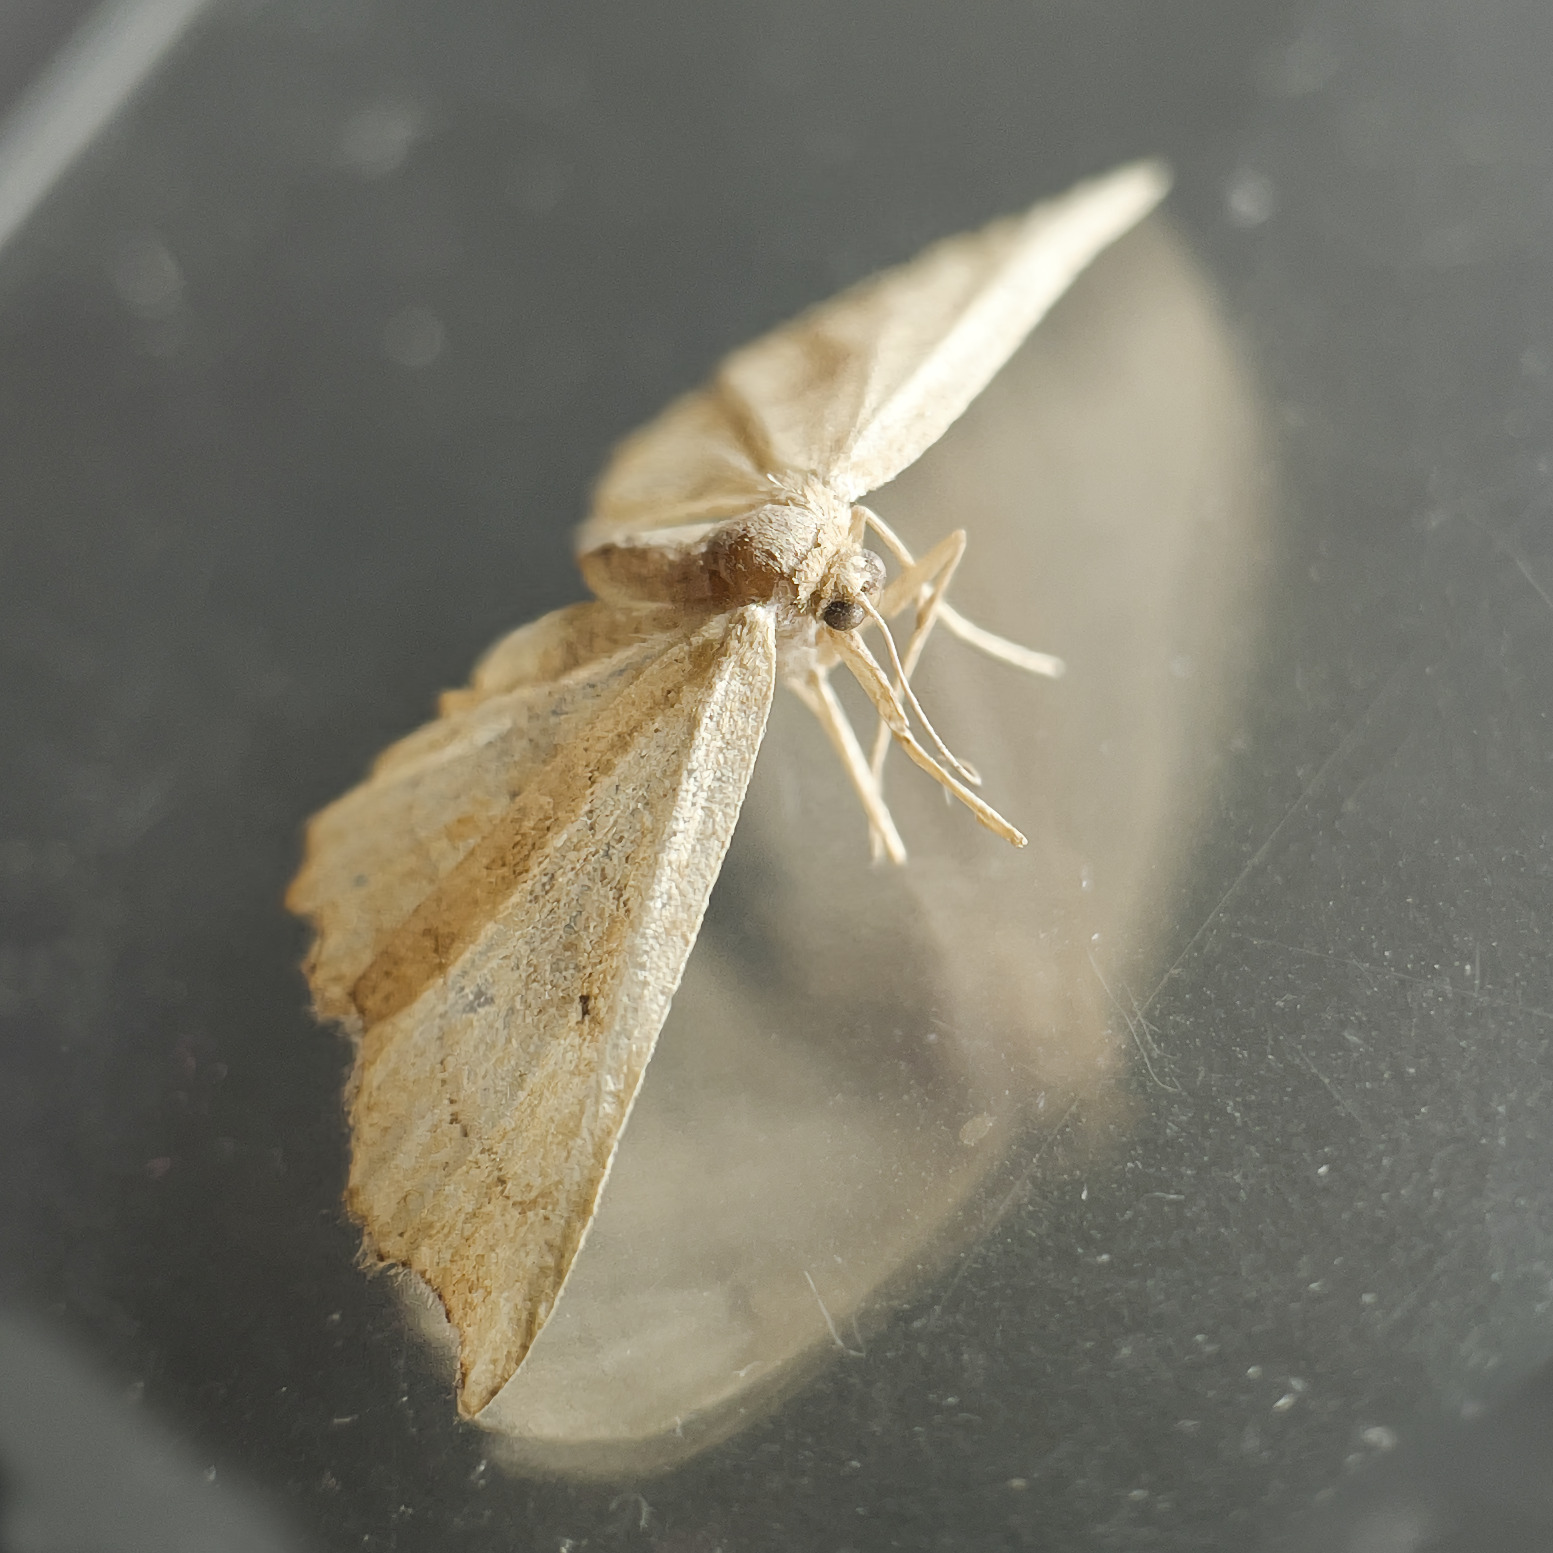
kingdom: Animalia
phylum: Arthropoda
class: Insecta
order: Lepidoptera
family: Geometridae
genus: Idaea
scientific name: Idaea emarginata
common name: Small scallop
